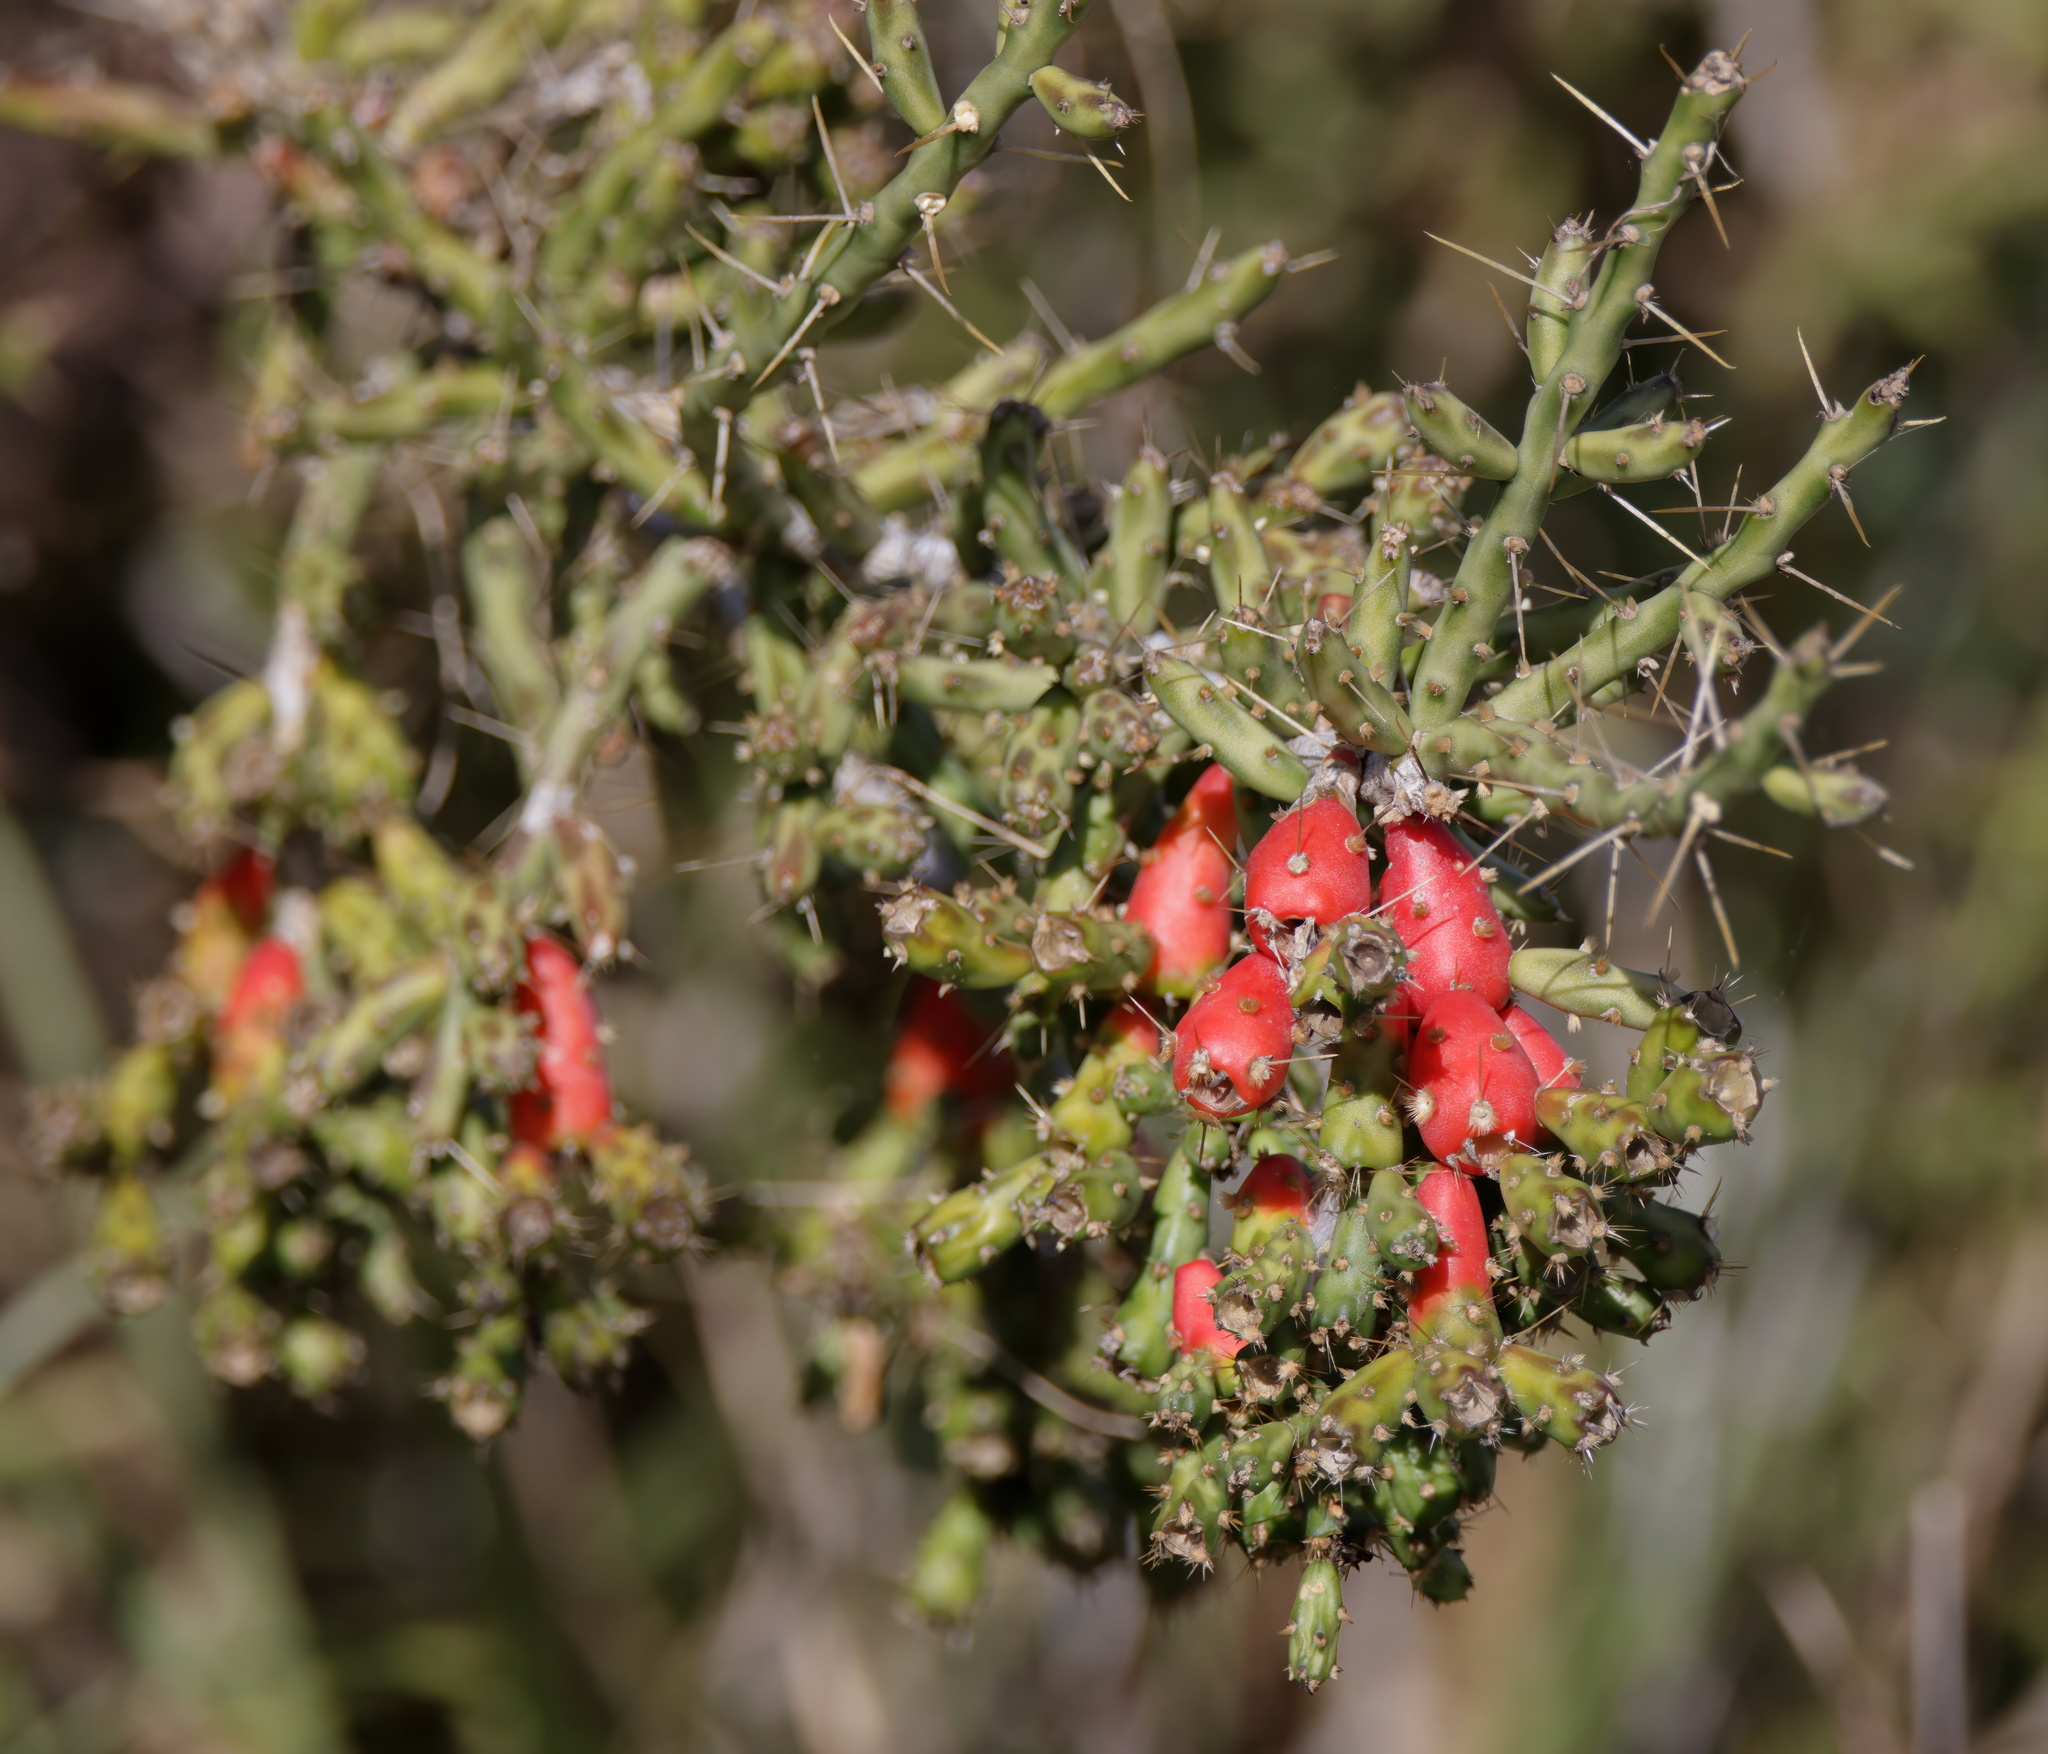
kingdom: Plantae
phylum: Tracheophyta
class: Magnoliopsida
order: Caryophyllales
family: Cactaceae
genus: Cylindropuntia
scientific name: Cylindropuntia leptocaulis
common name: Christmas cactus
